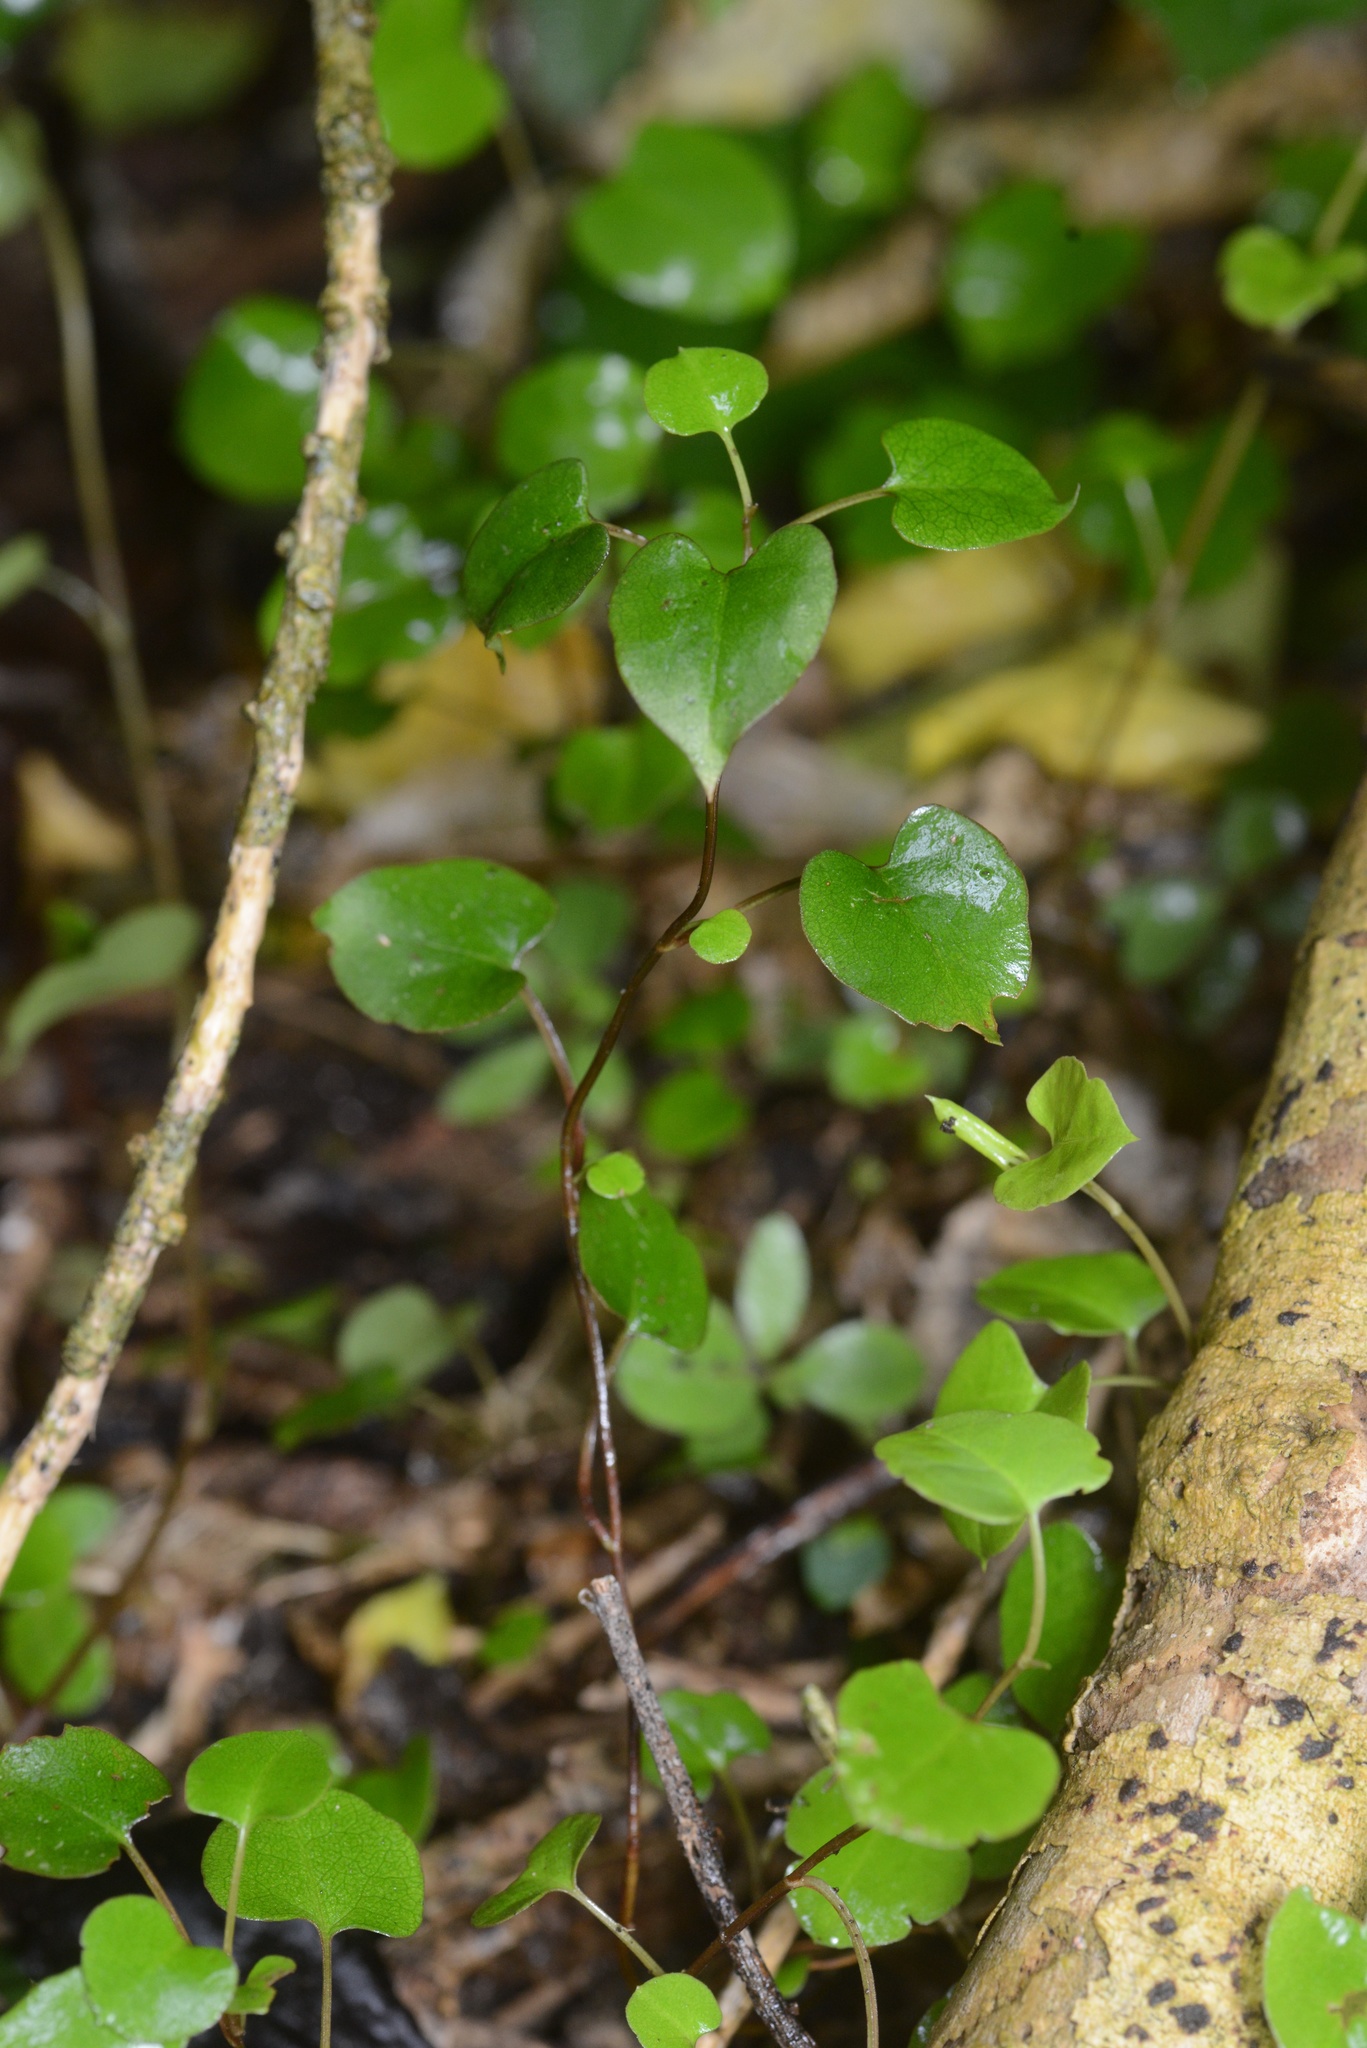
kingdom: Plantae
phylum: Tracheophyta
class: Magnoliopsida
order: Caryophyllales
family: Polygonaceae
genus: Muehlenbeckia
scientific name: Muehlenbeckia australis
